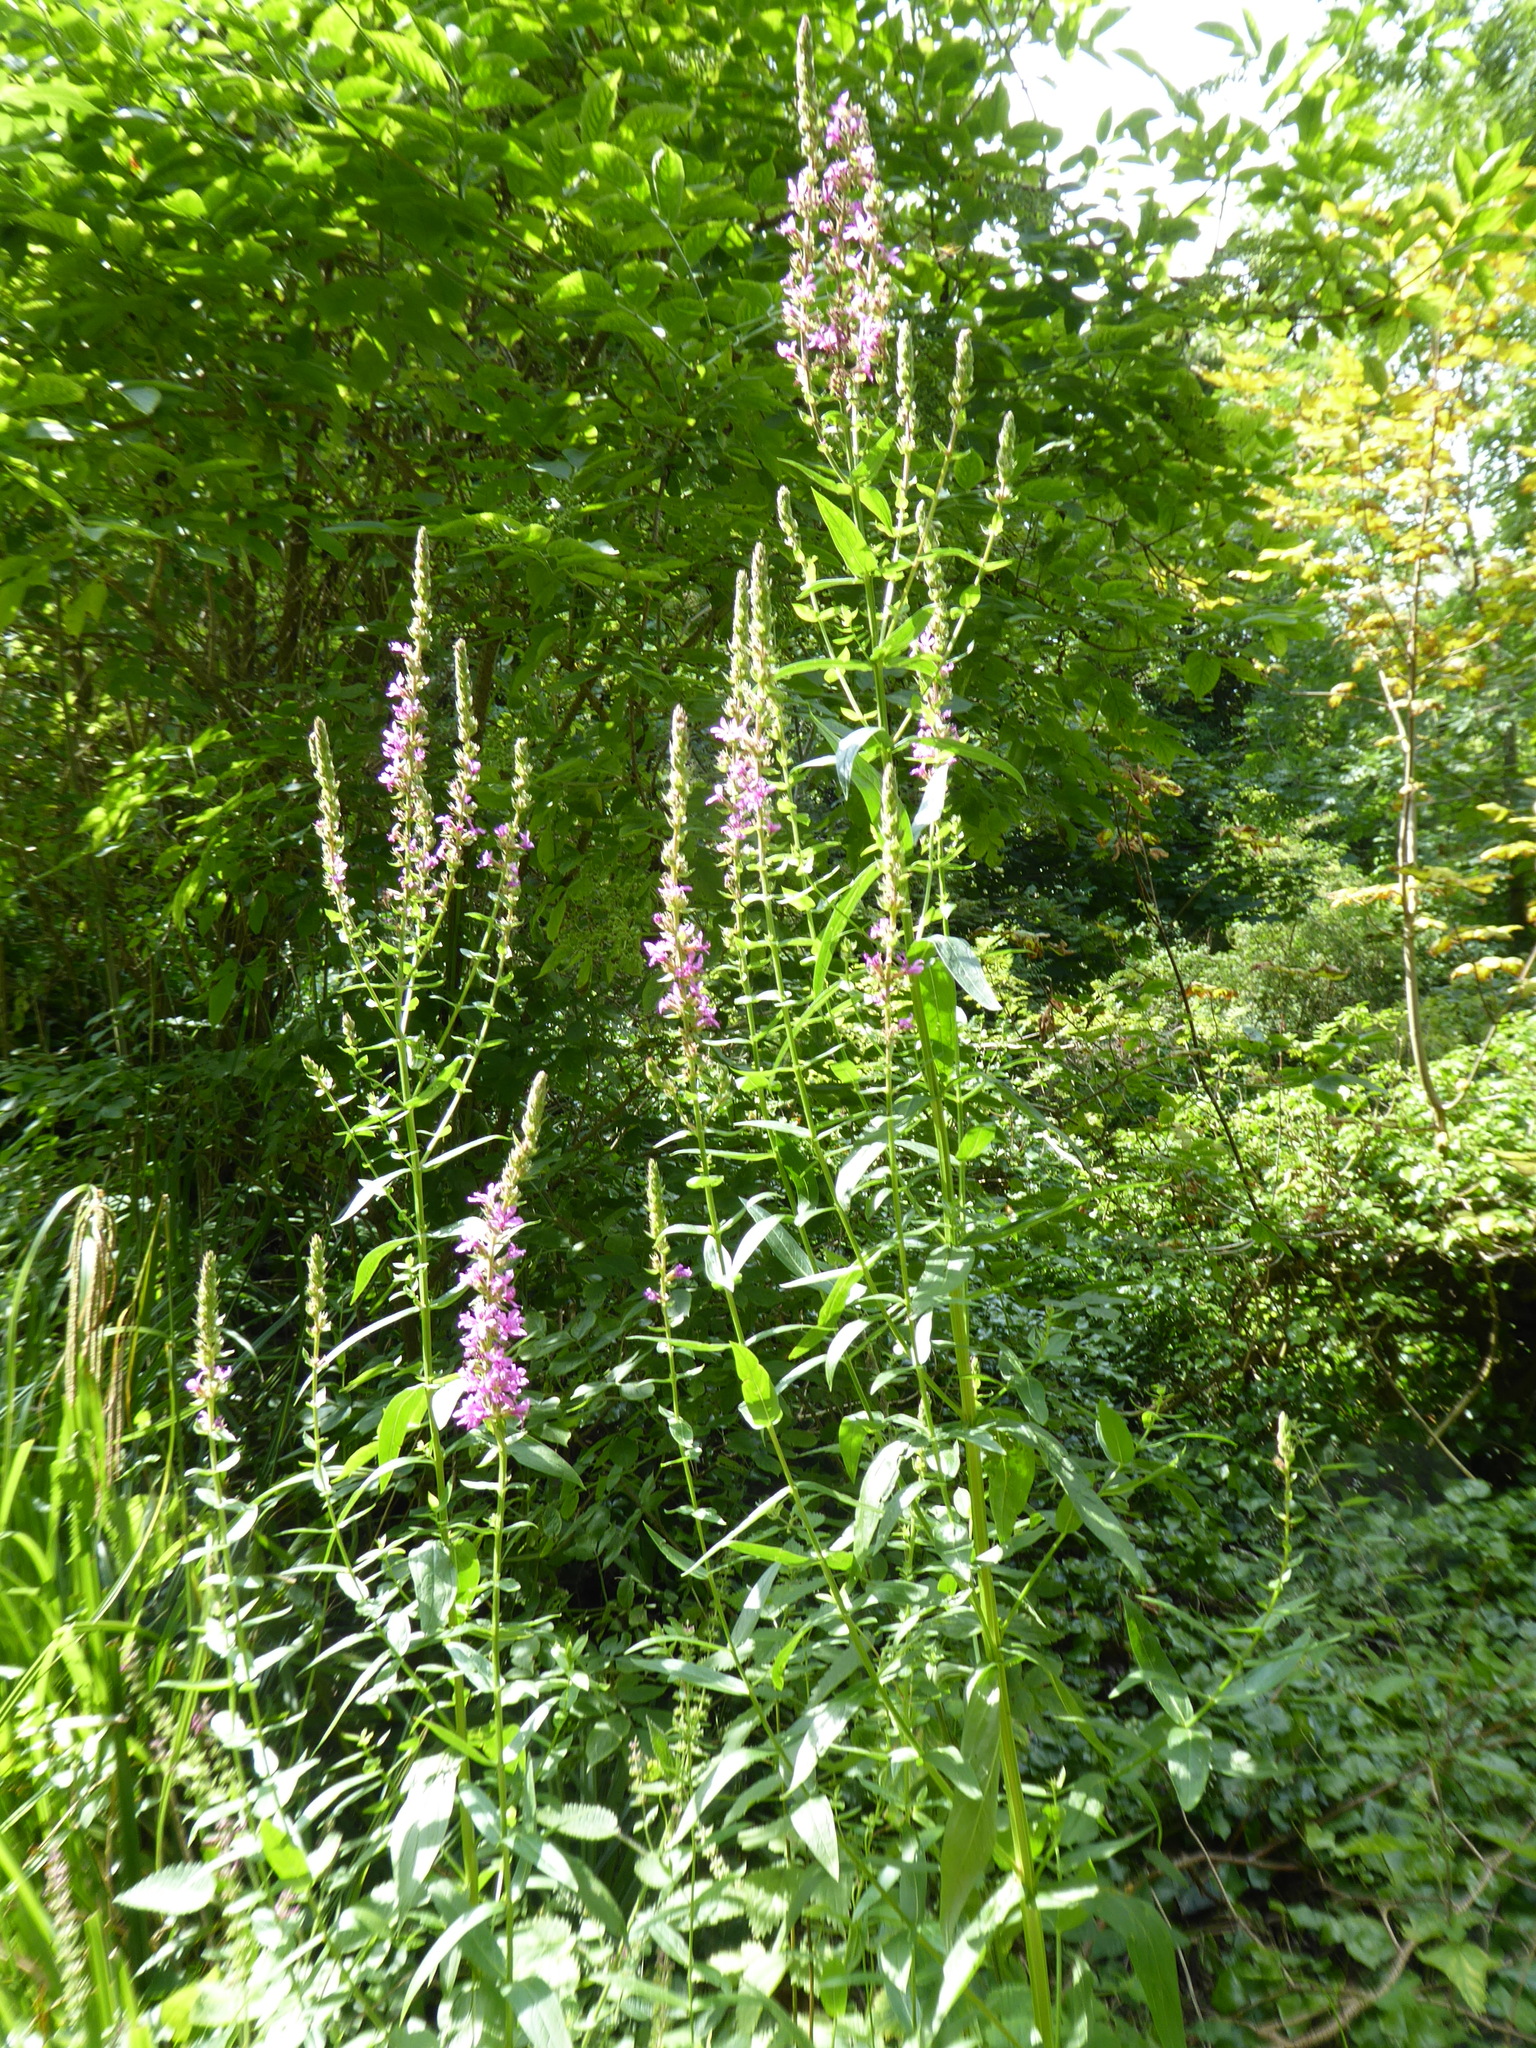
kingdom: Plantae
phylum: Tracheophyta
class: Magnoliopsida
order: Myrtales
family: Lythraceae
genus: Lythrum
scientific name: Lythrum salicaria
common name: Purple loosestrife
